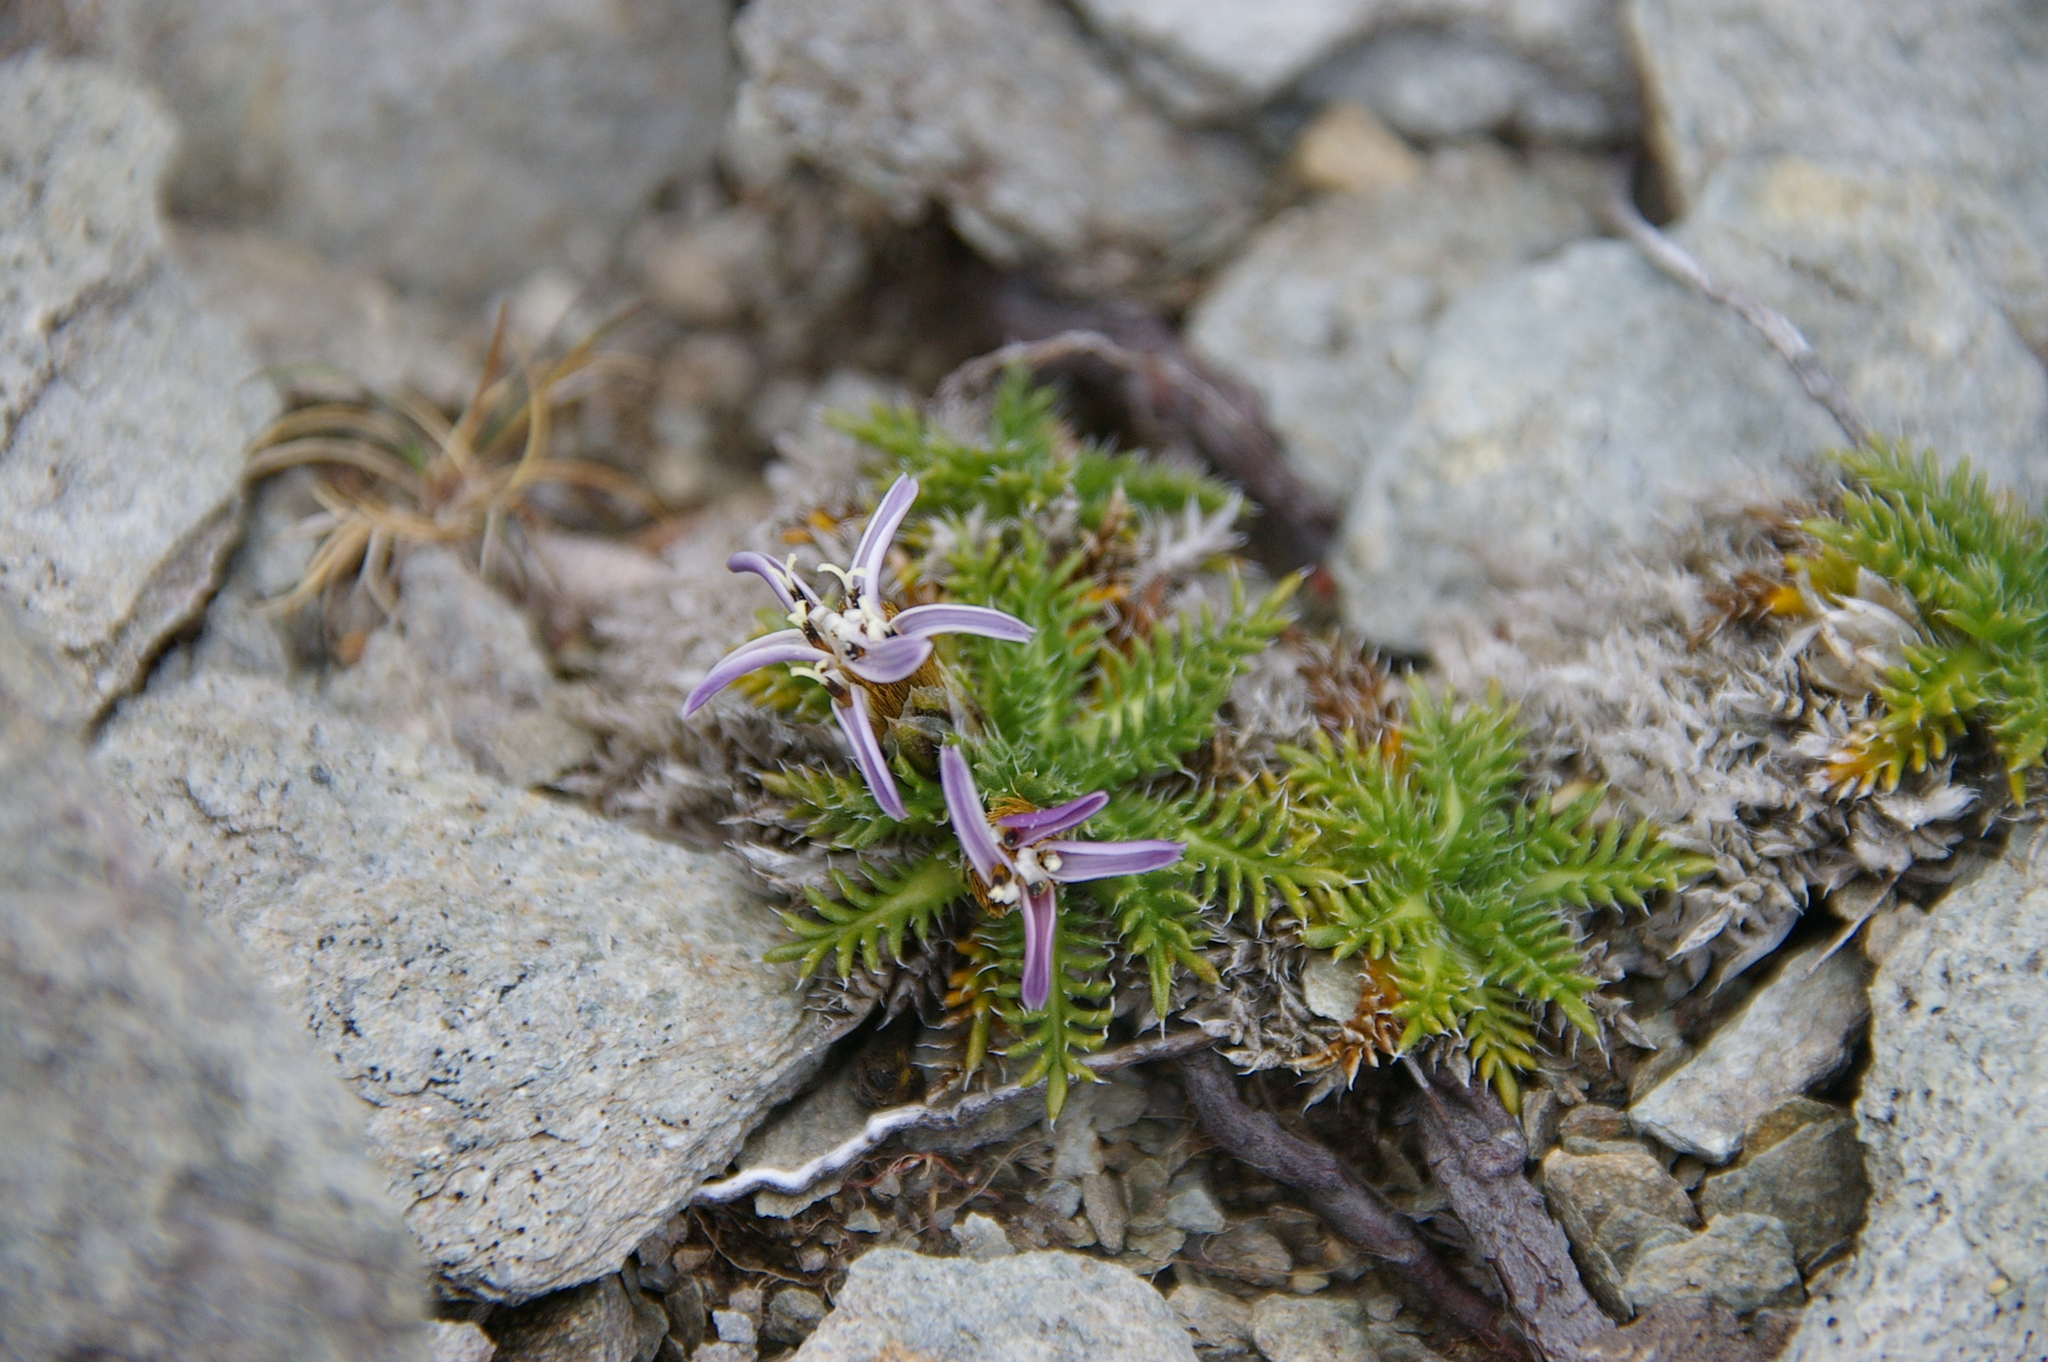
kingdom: Plantae
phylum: Tracheophyta
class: Magnoliopsida
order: Asterales
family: Asteraceae
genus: Perezia
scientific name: Perezia pilifera
